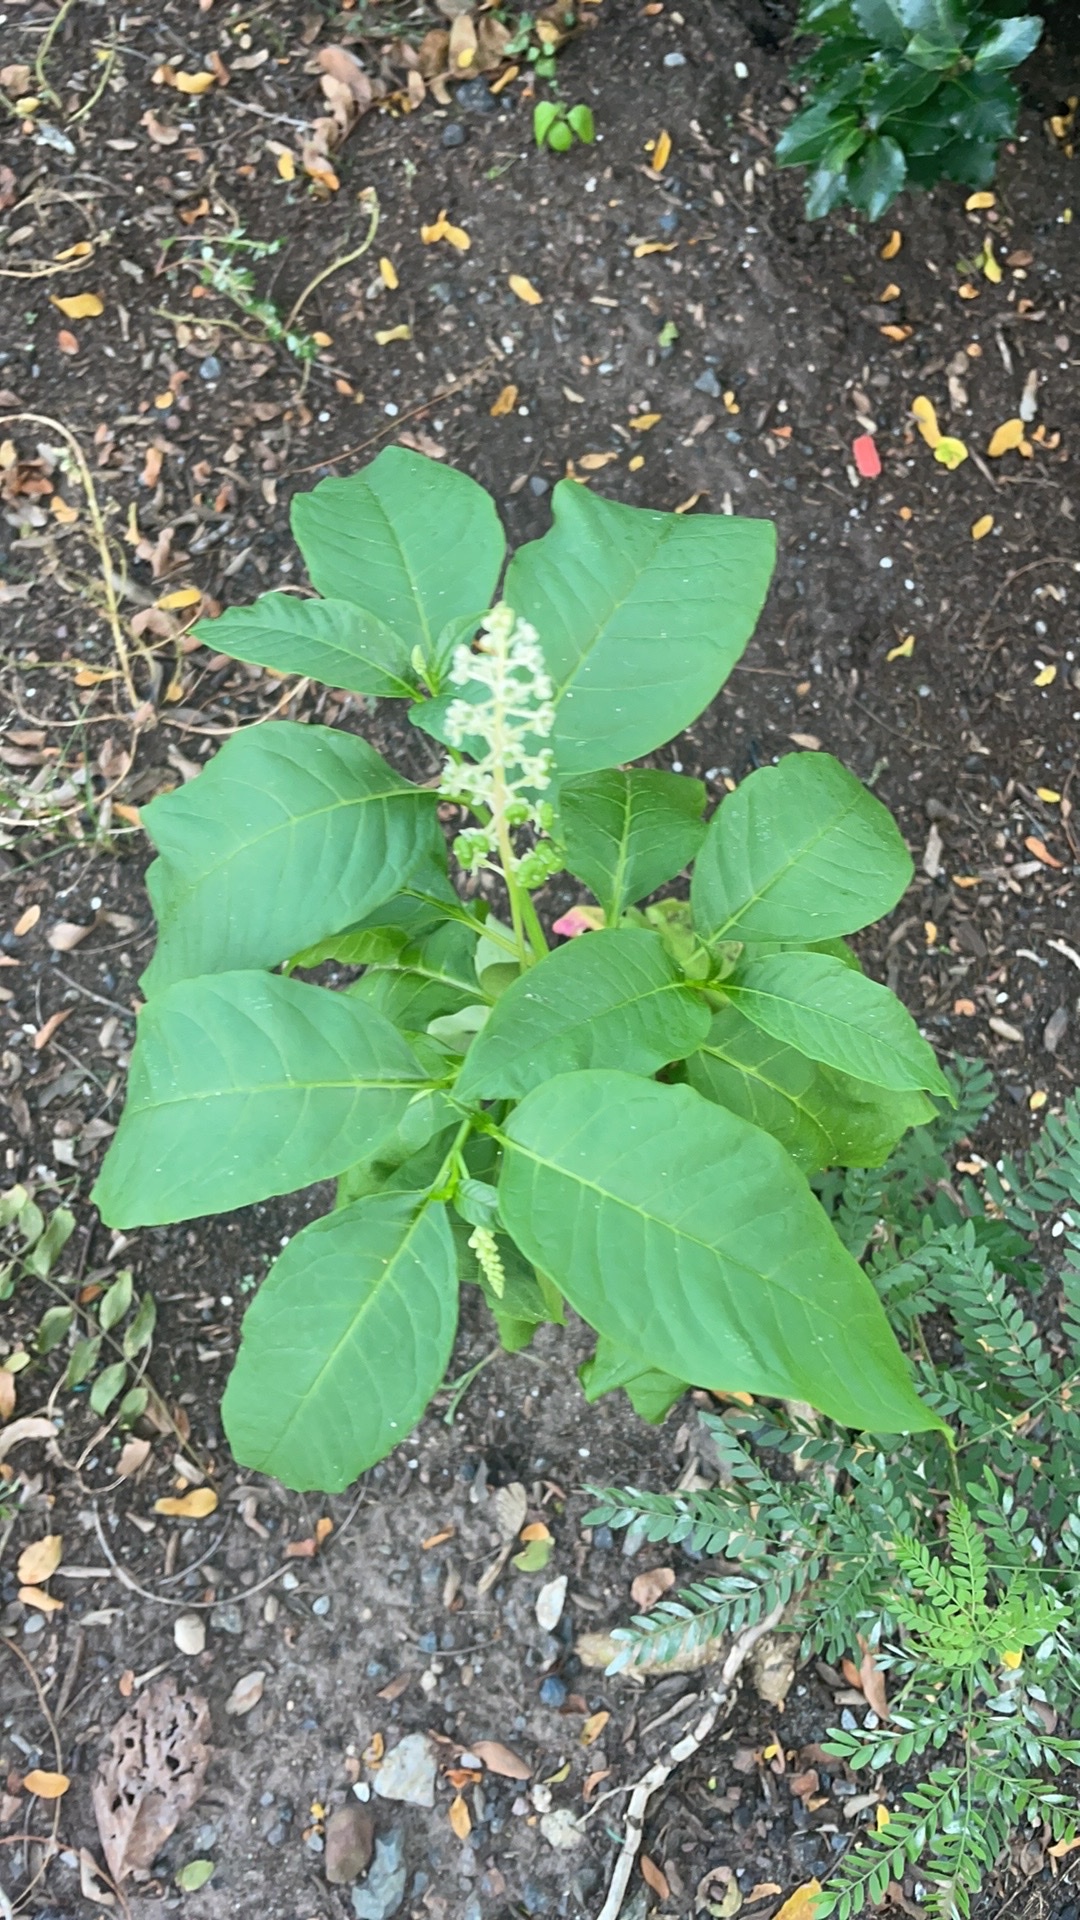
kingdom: Plantae
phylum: Tracheophyta
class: Magnoliopsida
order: Caryophyllales
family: Phytolaccaceae
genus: Phytolacca
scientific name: Phytolacca americana
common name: American pokeweed
